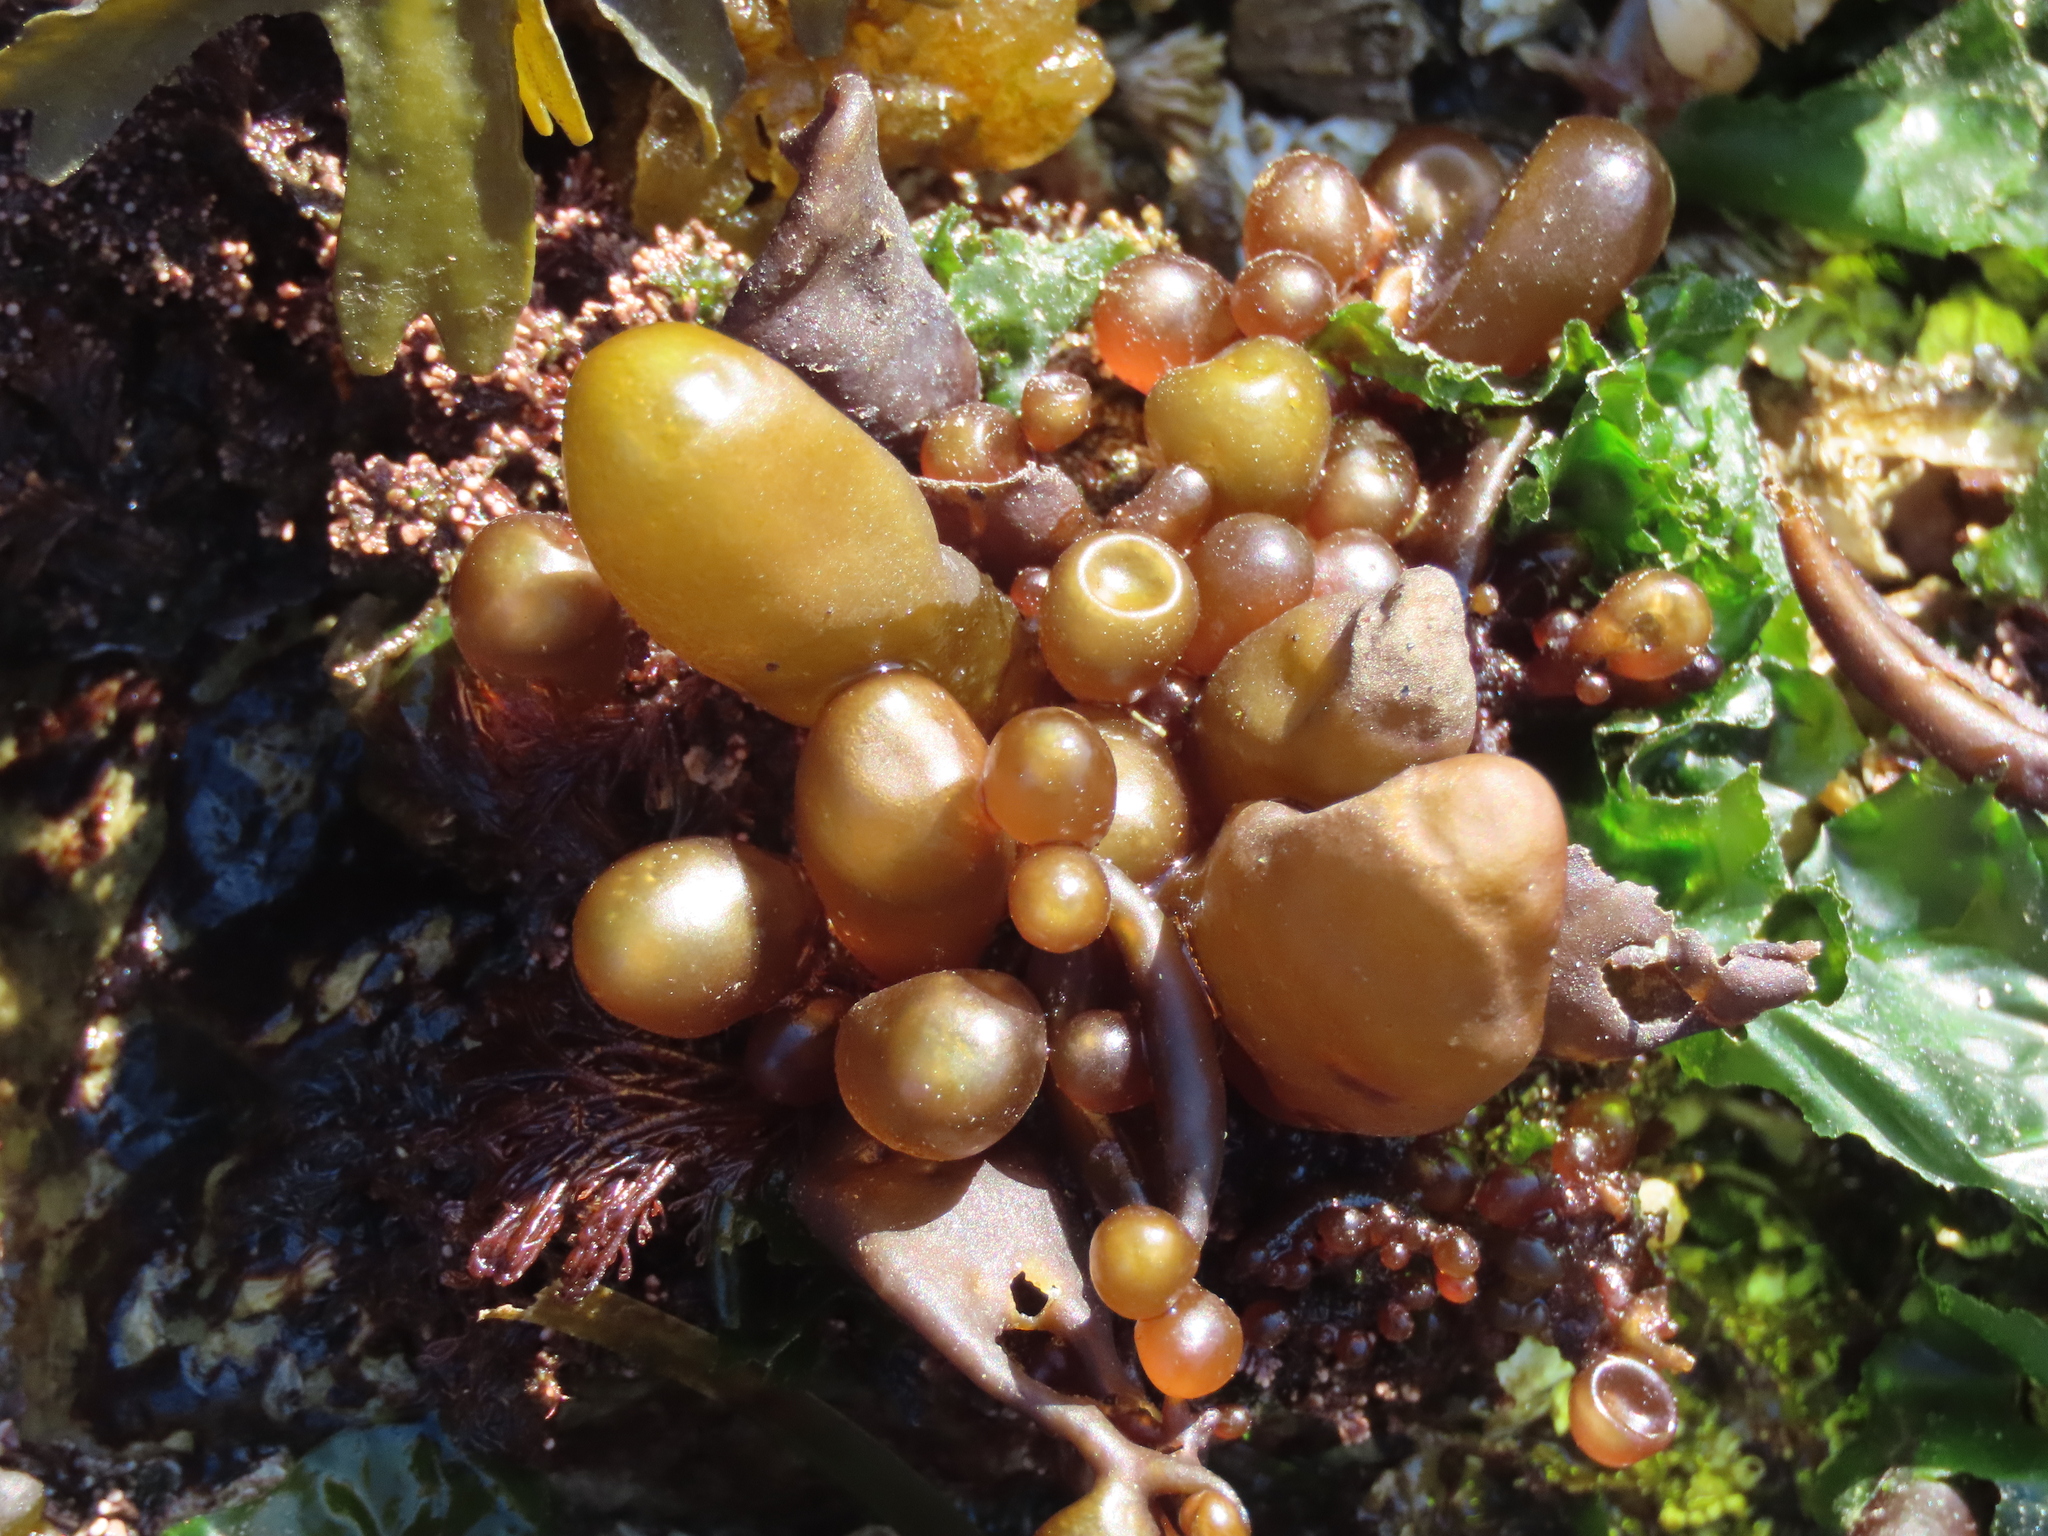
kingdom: Plantae
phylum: Rhodophyta
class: Florideophyceae
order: Palmariales
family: Palmariaceae
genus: Halosaccion
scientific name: Halosaccion glandiforme
